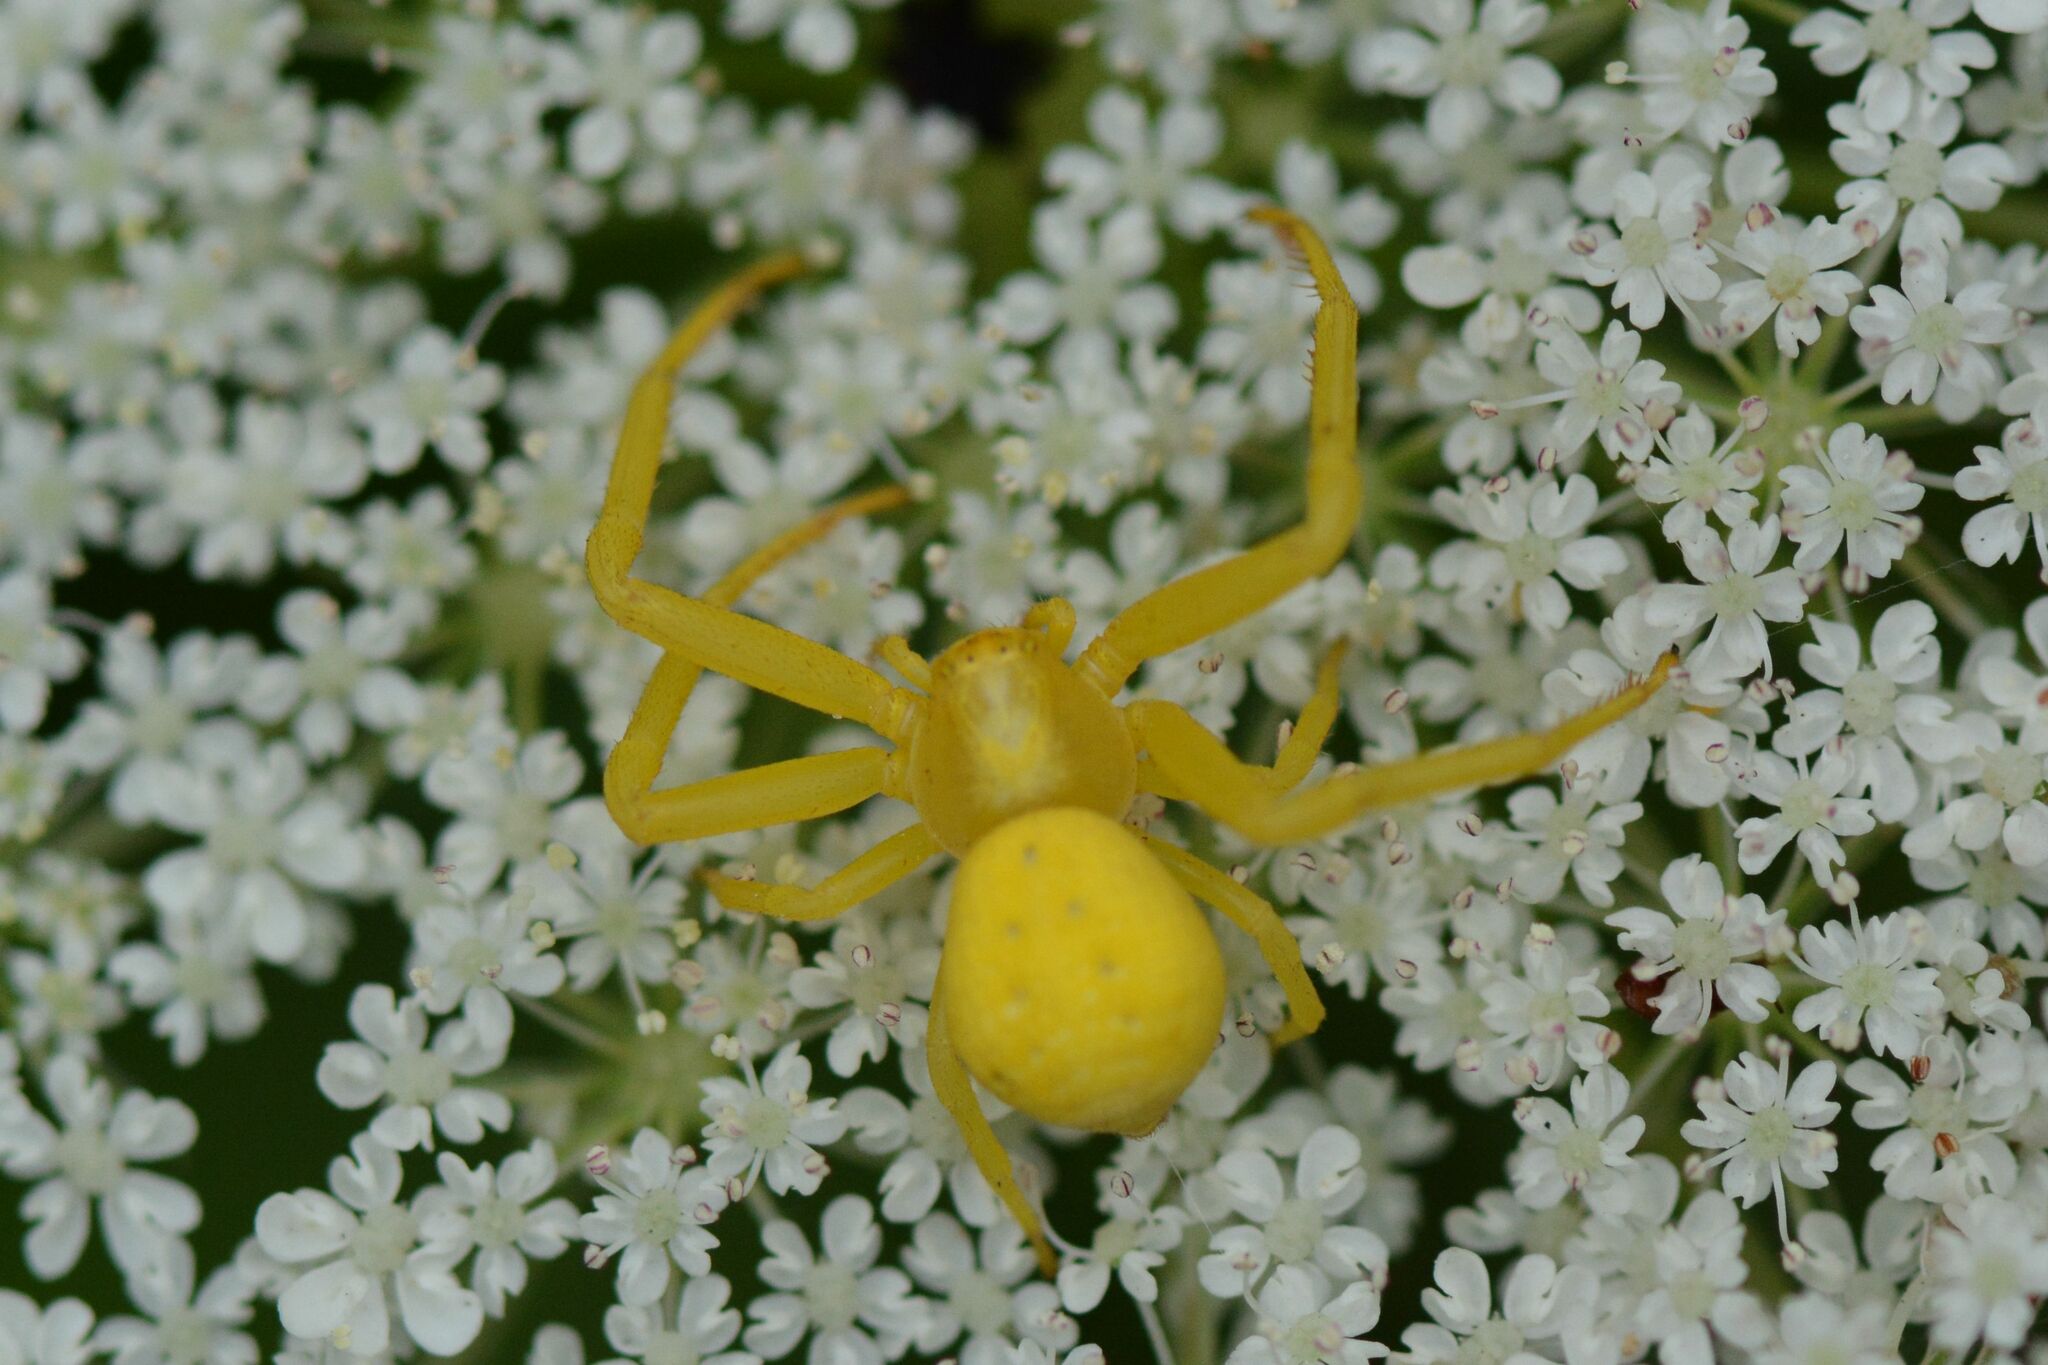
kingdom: Animalia
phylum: Arthropoda
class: Arachnida
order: Araneae
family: Thomisidae
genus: Misumena
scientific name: Misumena vatia
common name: Goldenrod crab spider
